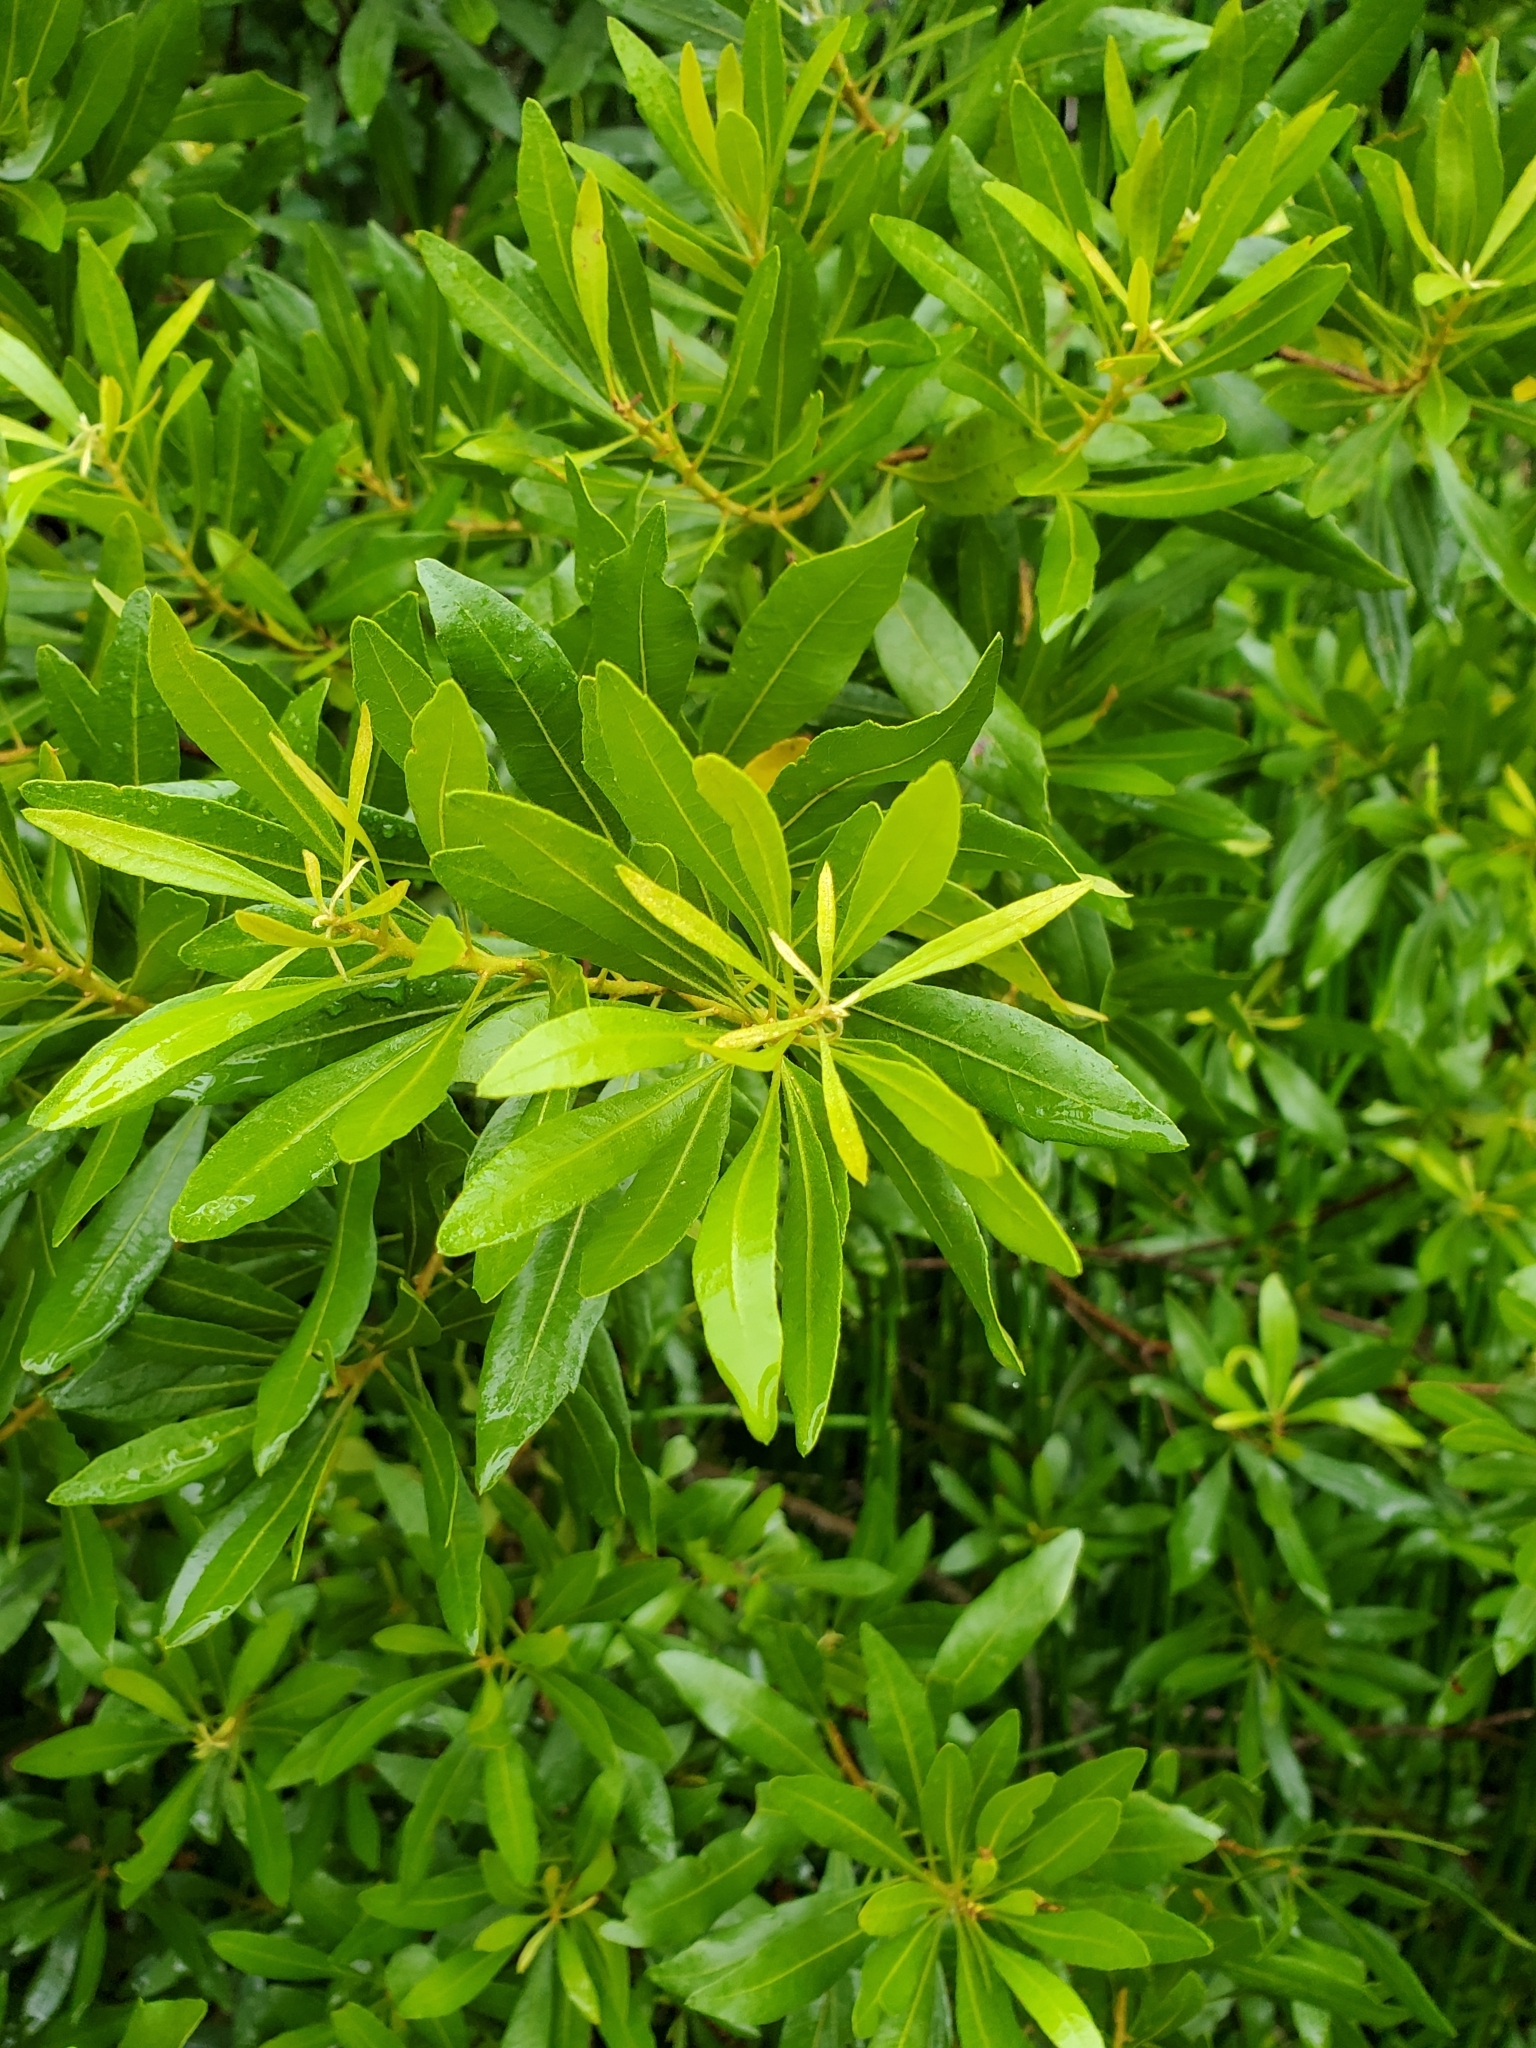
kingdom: Plantae
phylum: Tracheophyta
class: Magnoliopsida
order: Fagales
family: Myricaceae
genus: Morella
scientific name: Morella cerifera
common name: Wax myrtle
